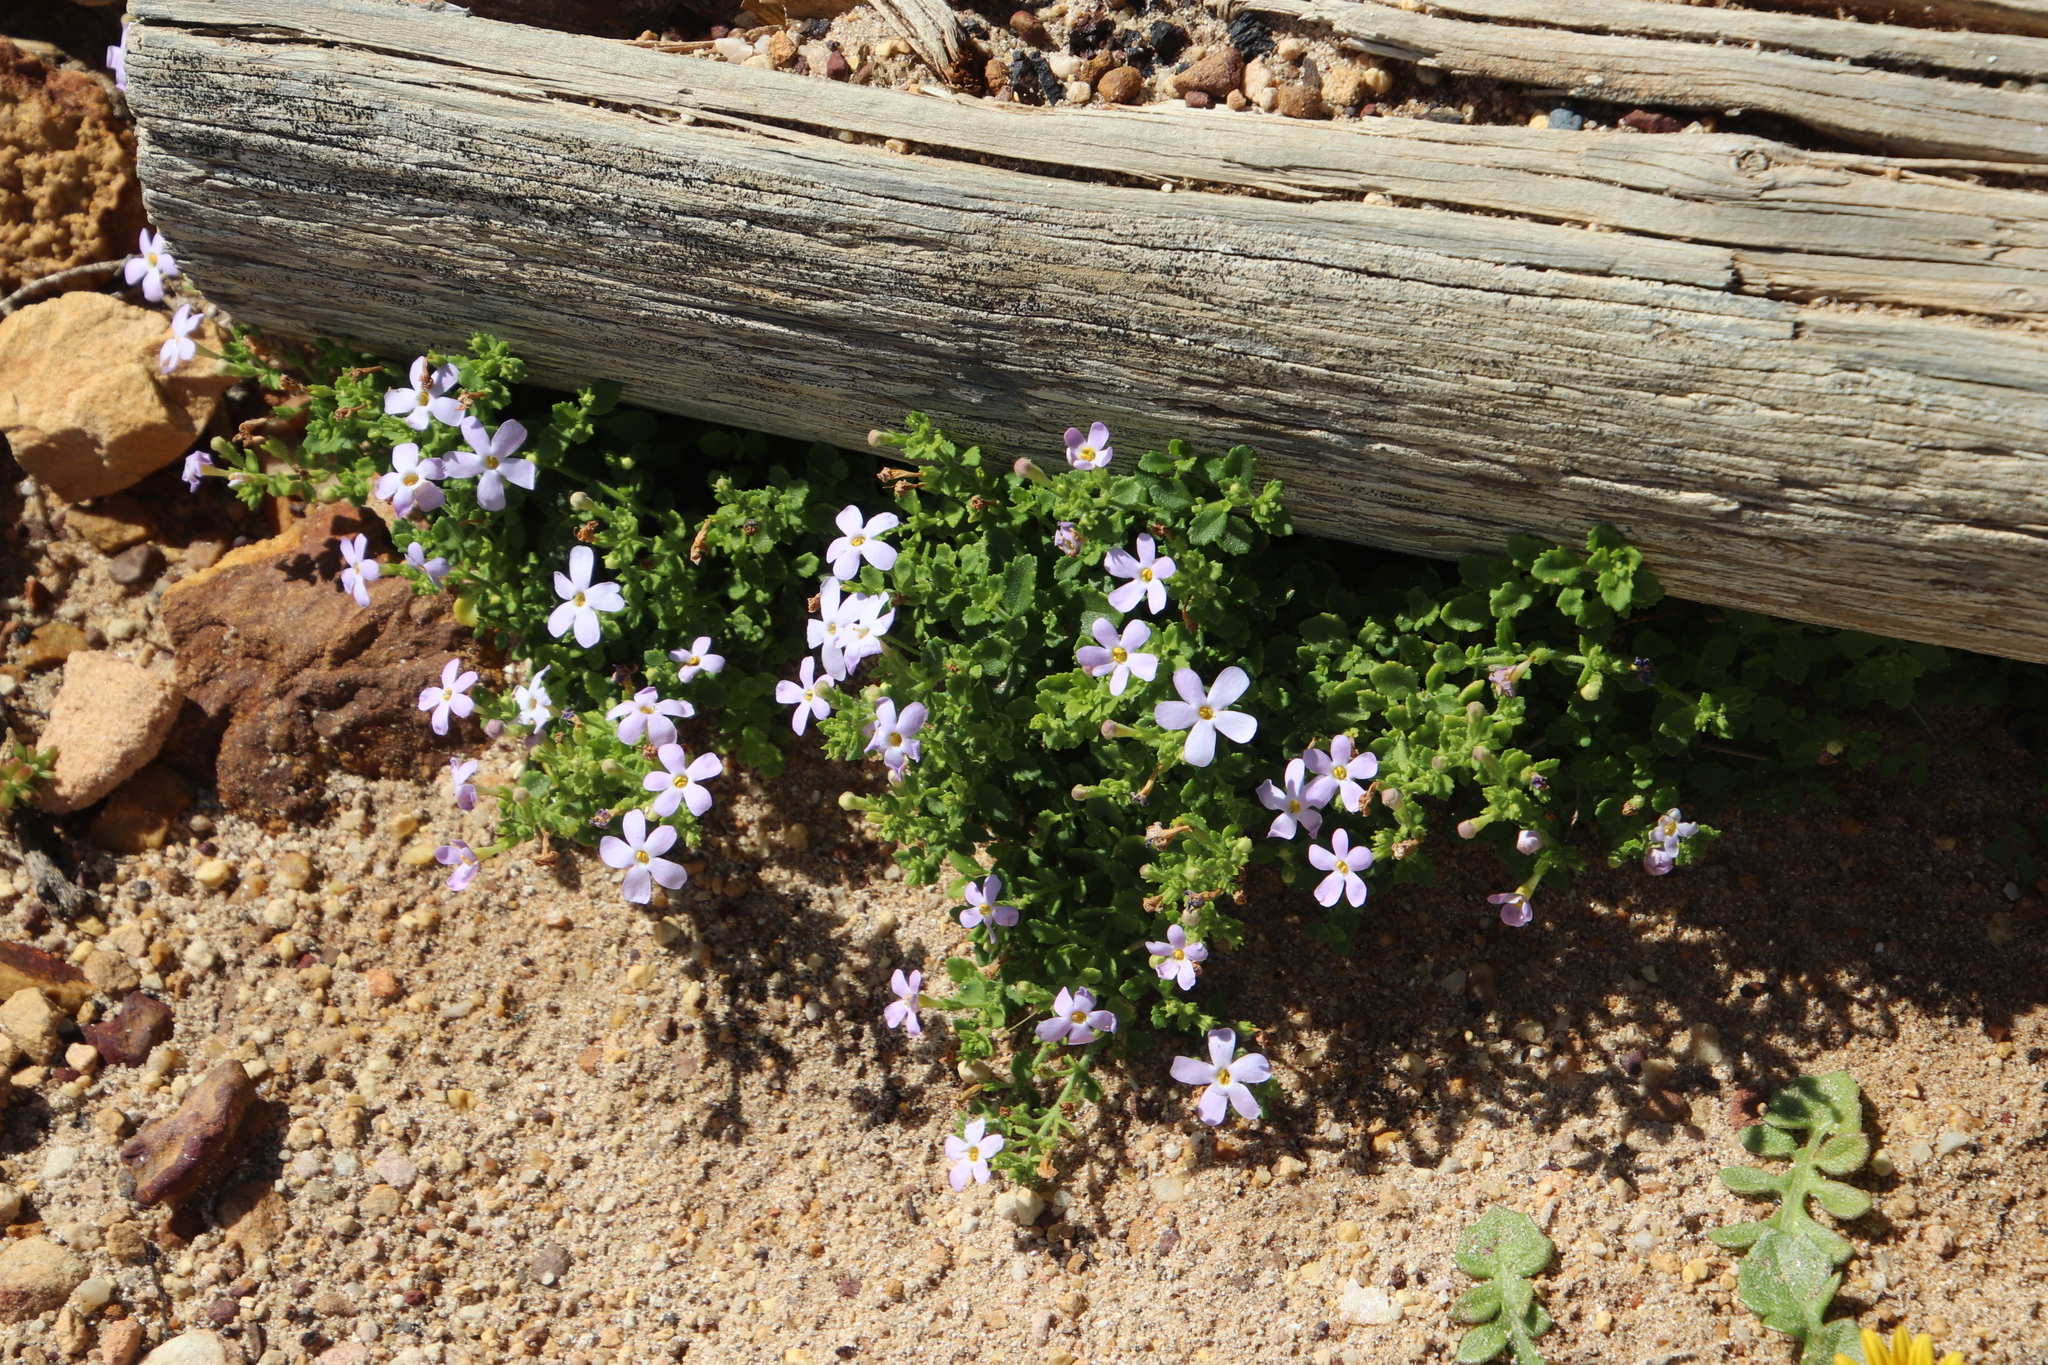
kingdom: Plantae
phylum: Tracheophyta
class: Magnoliopsida
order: Lamiales
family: Scrophulariaceae
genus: Chaenostoma
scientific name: Chaenostoma hispidum
